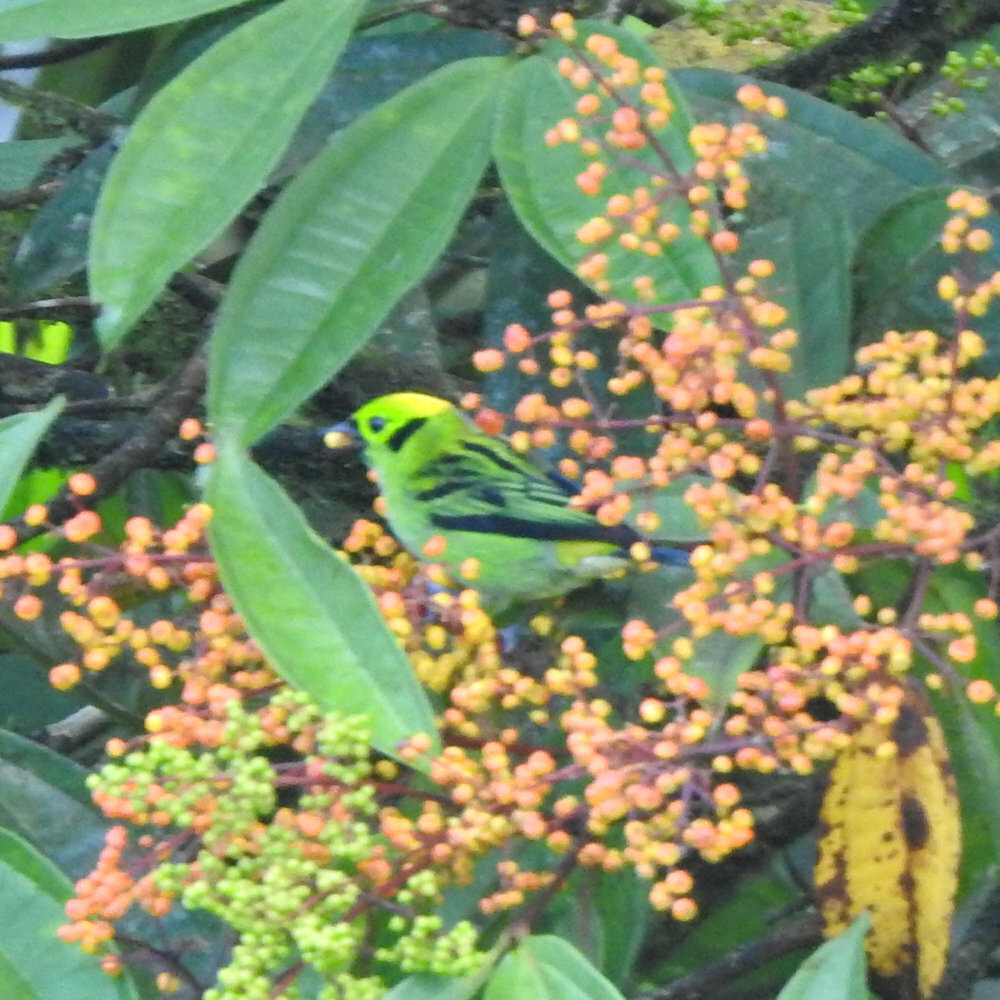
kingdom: Animalia
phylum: Chordata
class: Aves
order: Passeriformes
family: Thraupidae
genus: Tangara
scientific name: Tangara florida
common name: Emerald tanager
